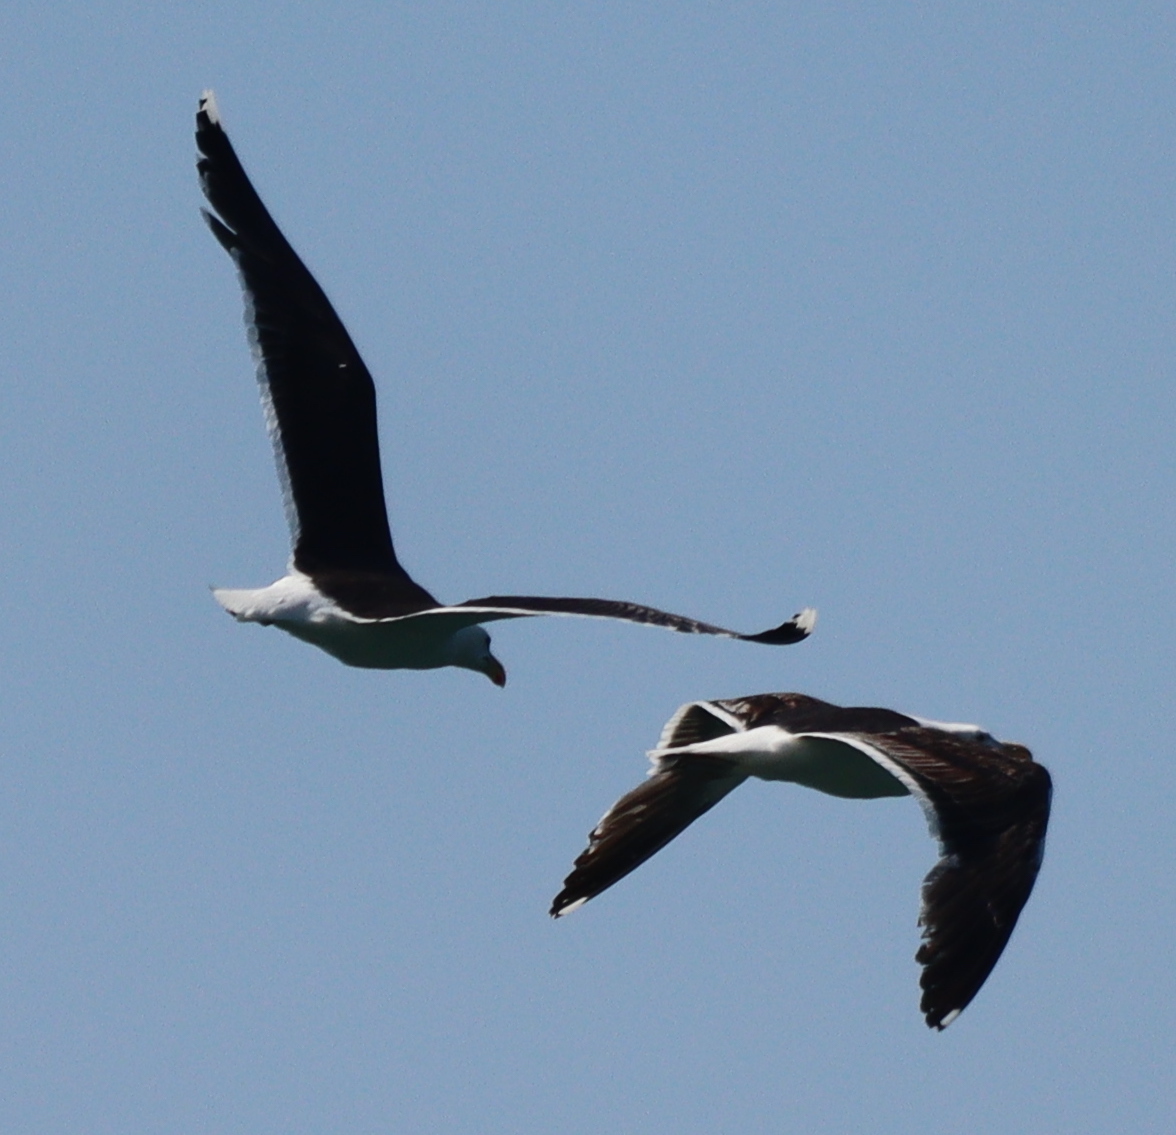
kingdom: Animalia
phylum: Chordata
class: Aves
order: Charadriiformes
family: Laridae
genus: Larus
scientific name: Larus marinus
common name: Great black-backed gull
